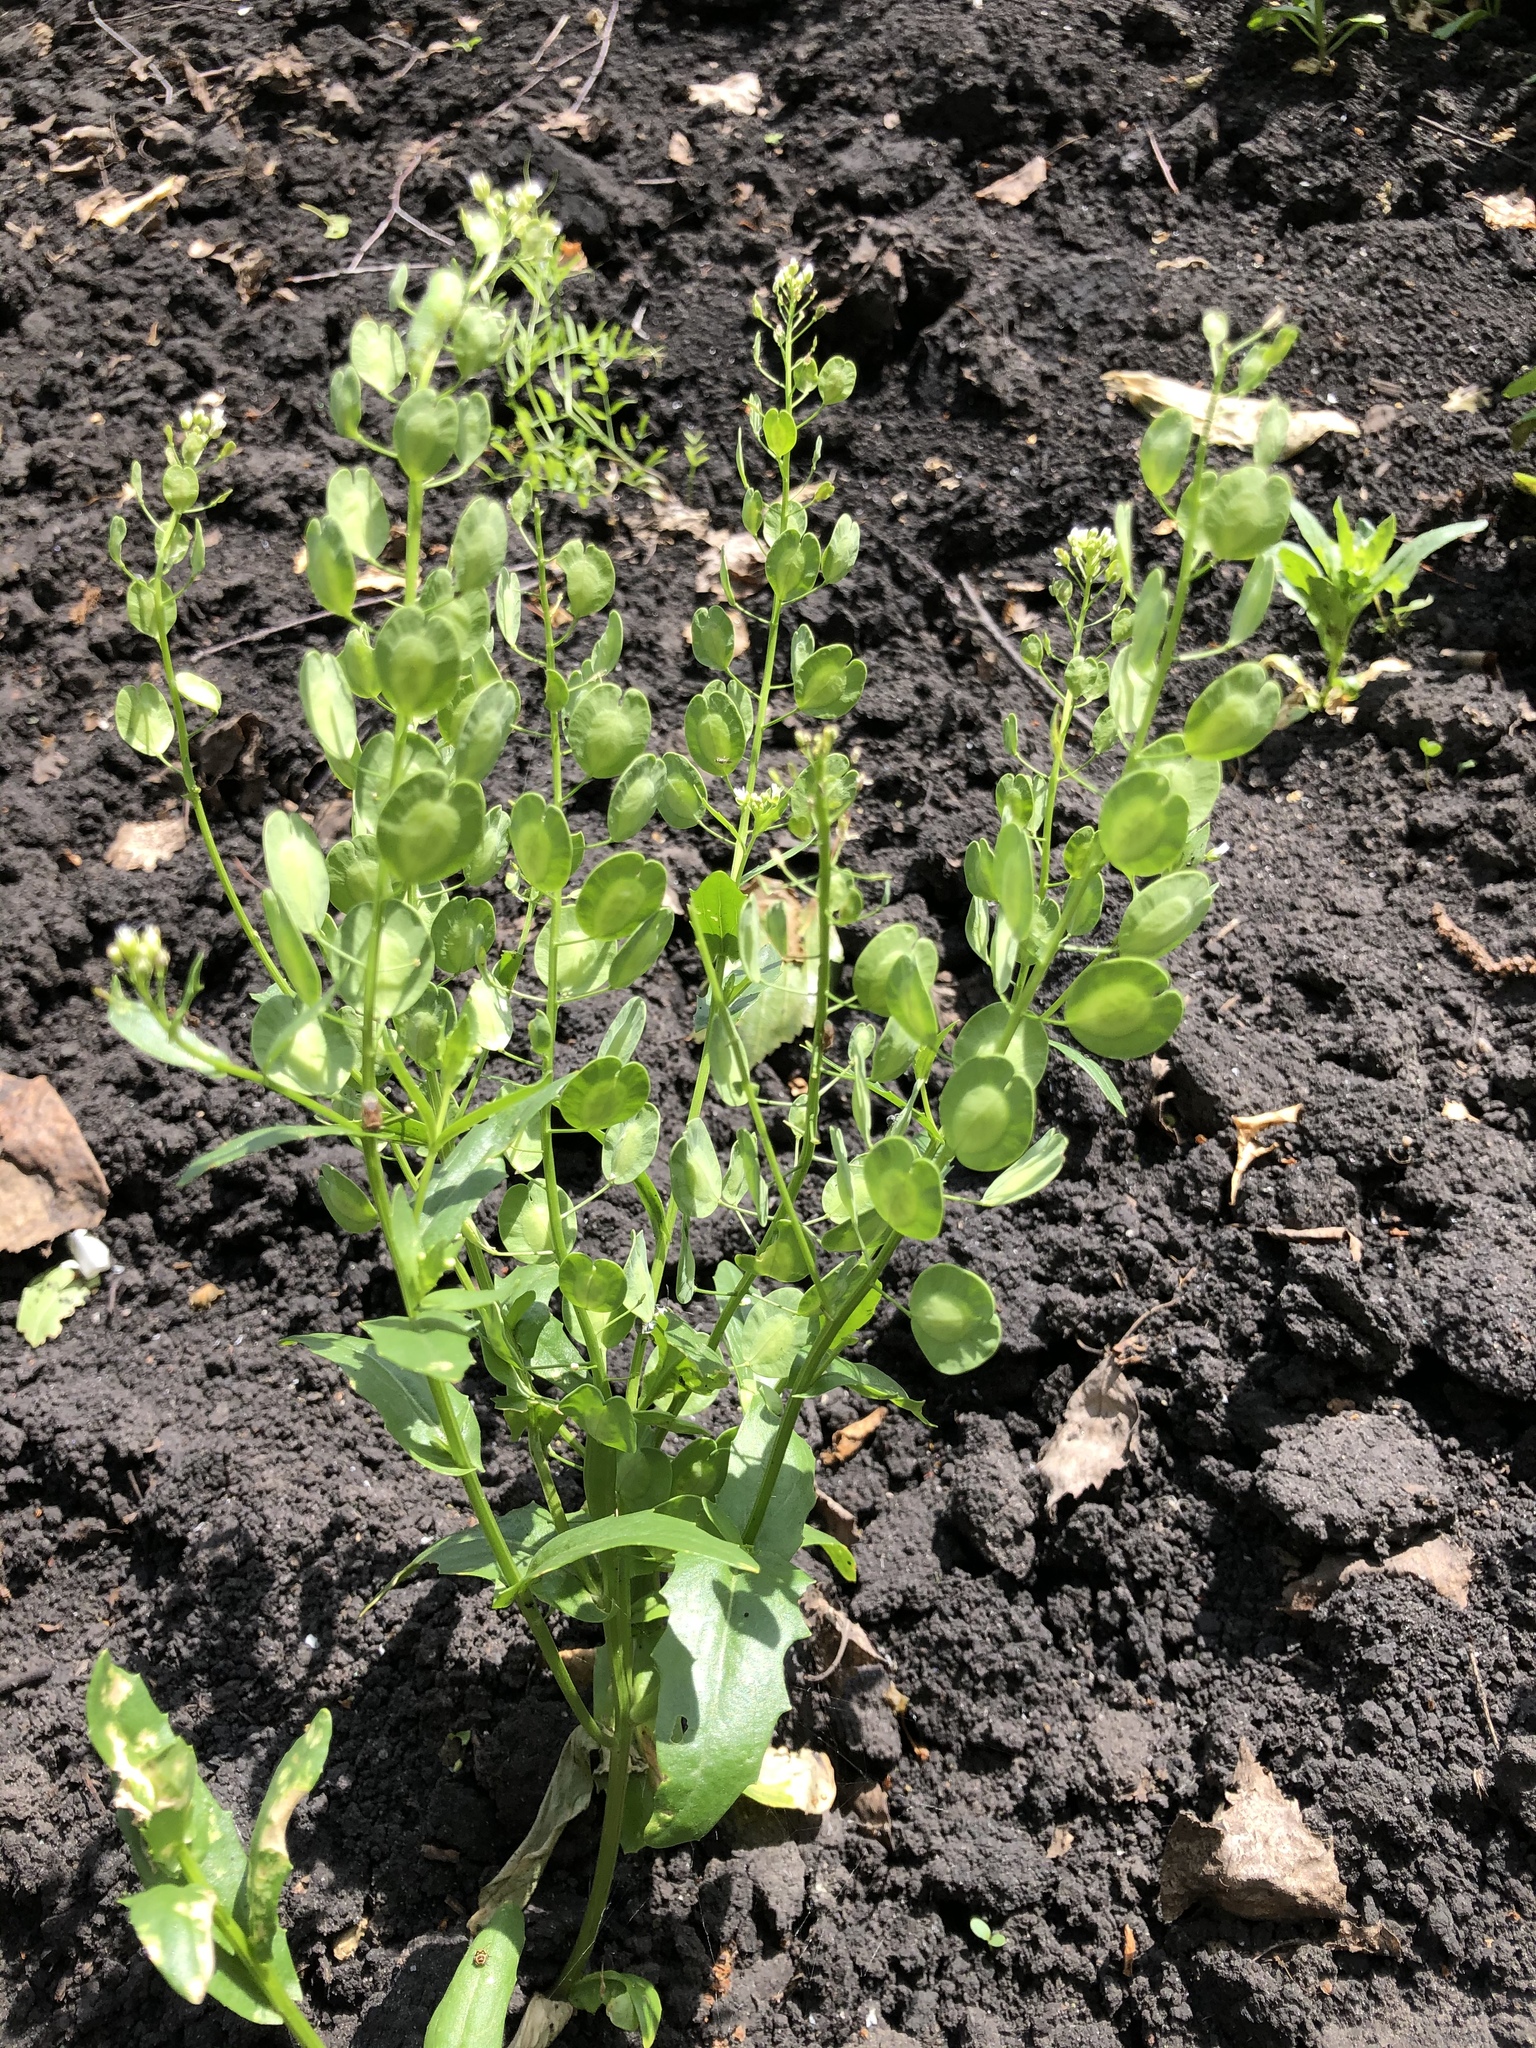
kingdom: Plantae
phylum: Tracheophyta
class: Magnoliopsida
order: Brassicales
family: Brassicaceae
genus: Thlaspi
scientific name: Thlaspi arvense
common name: Field pennycress
